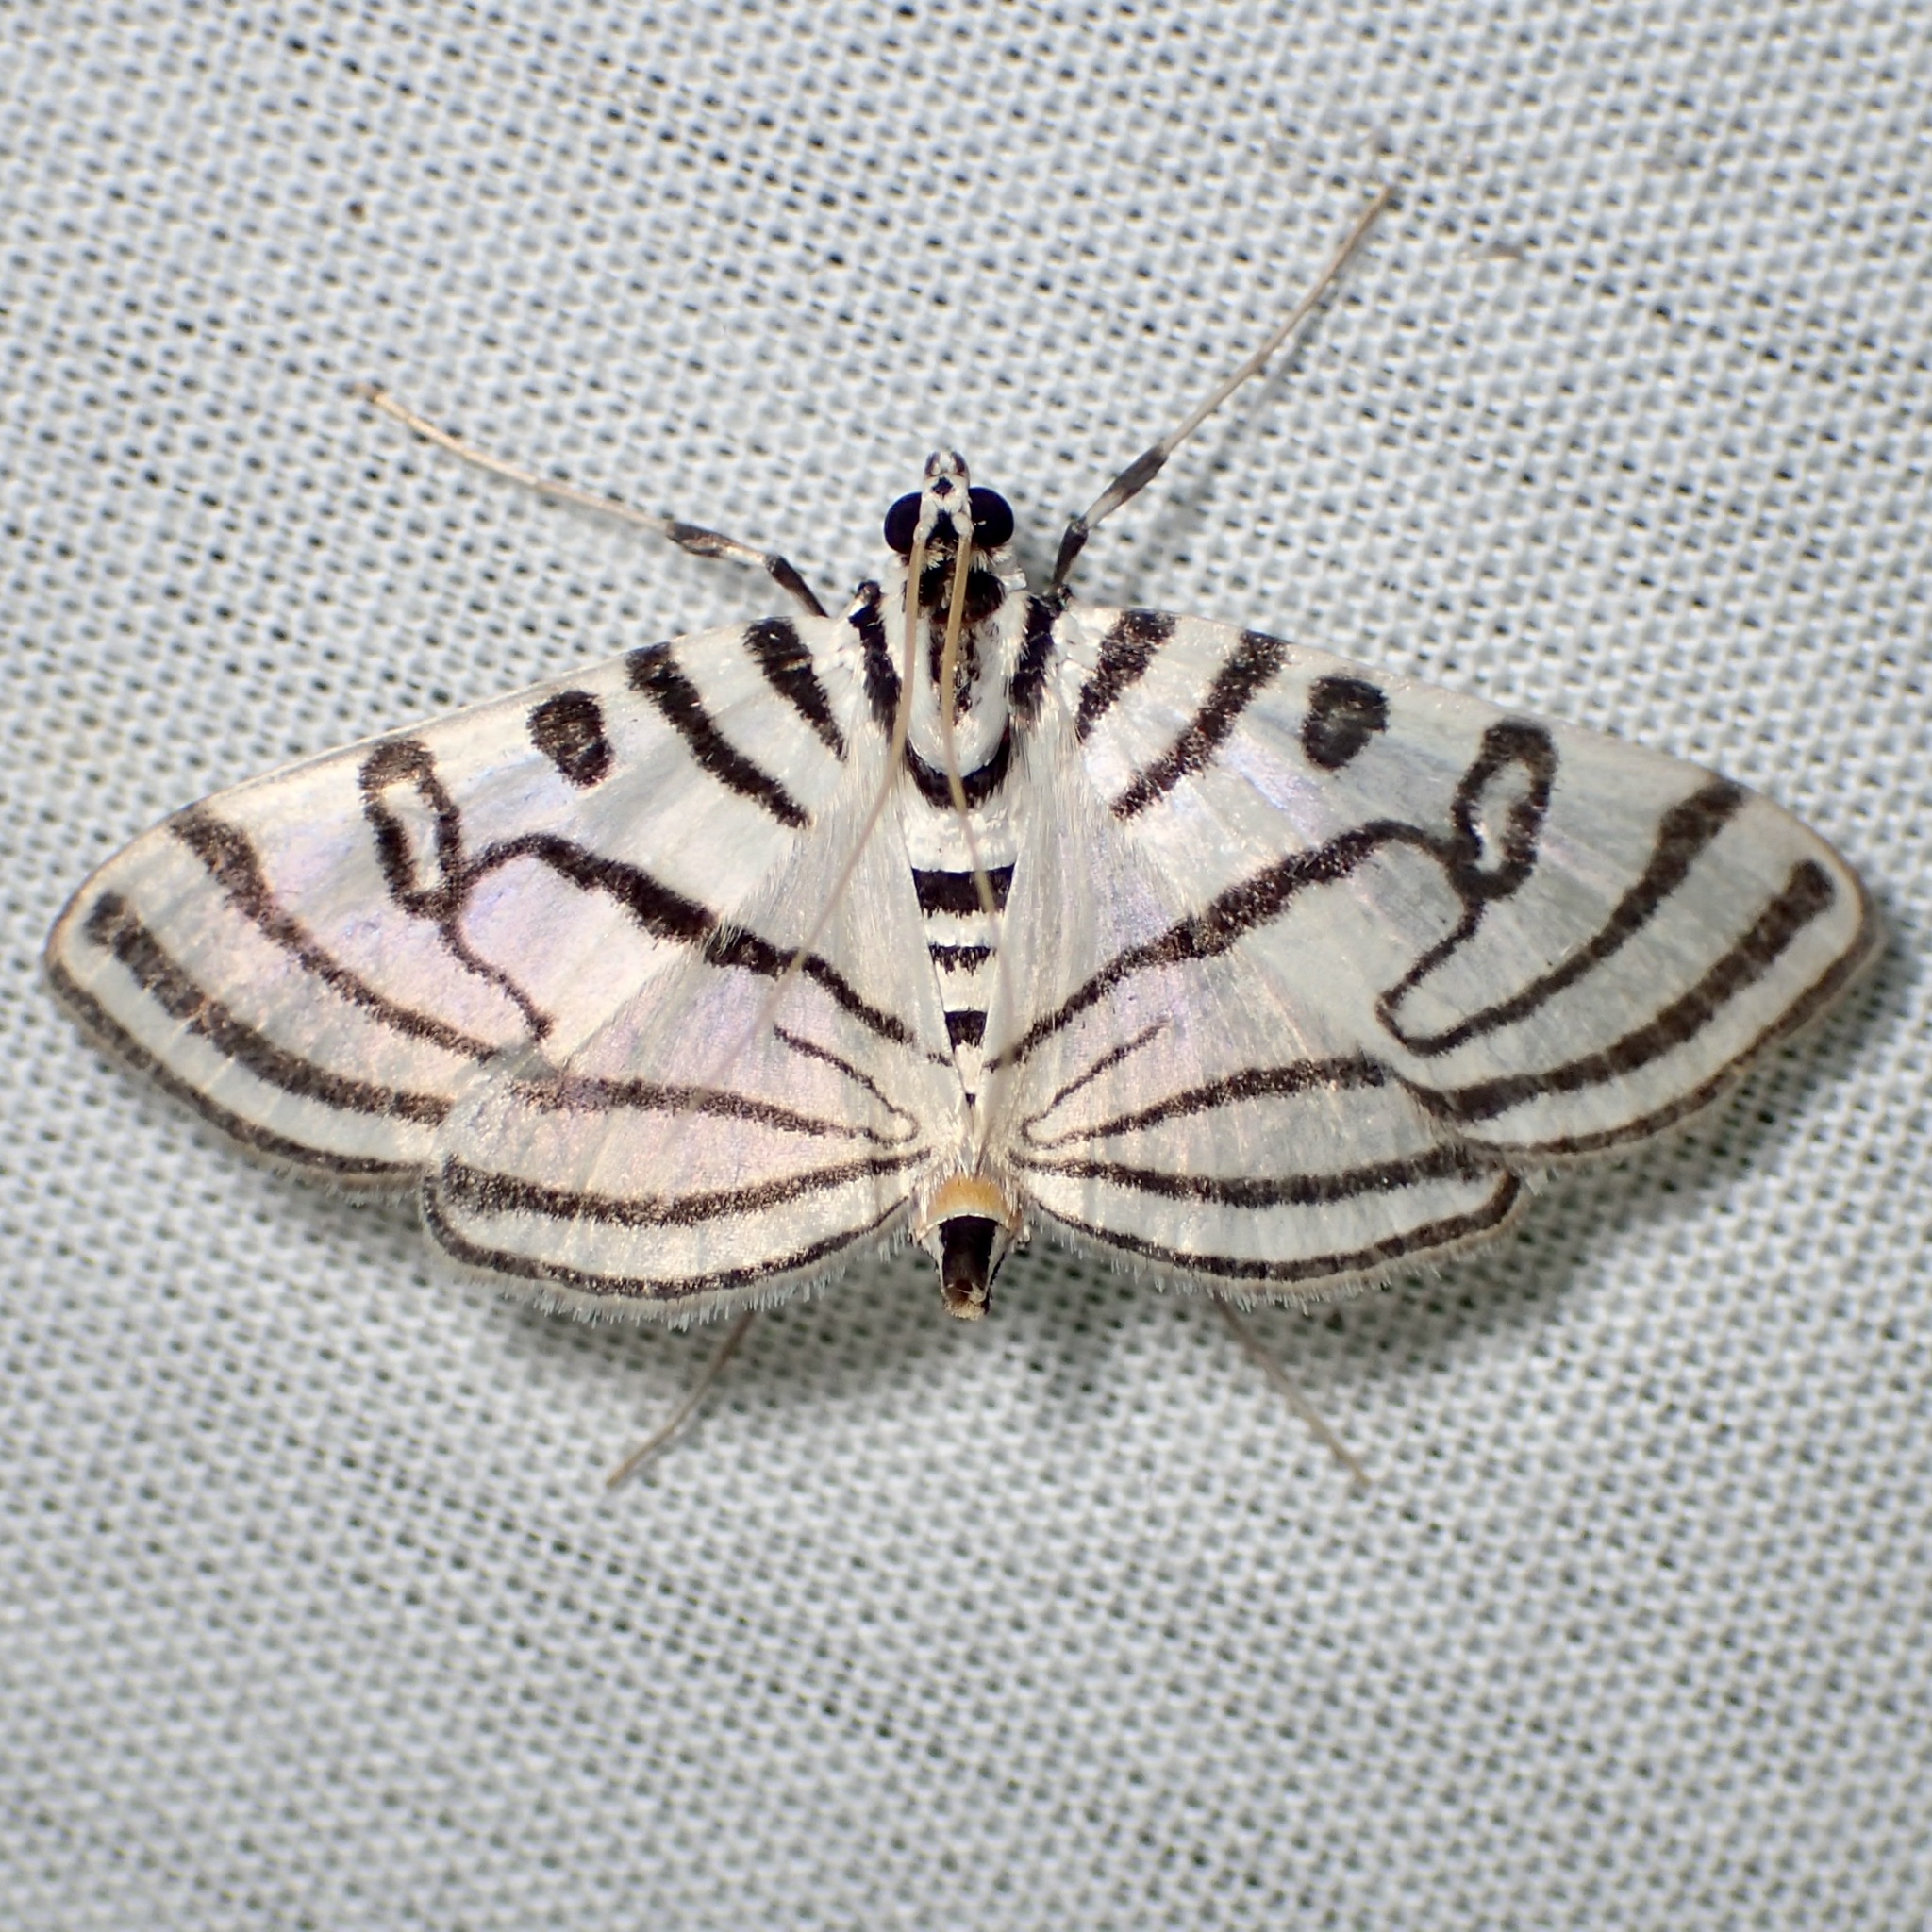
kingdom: Animalia
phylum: Arthropoda
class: Insecta
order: Lepidoptera
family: Crambidae
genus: Conchylodes
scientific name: Conchylodes ovulalis
